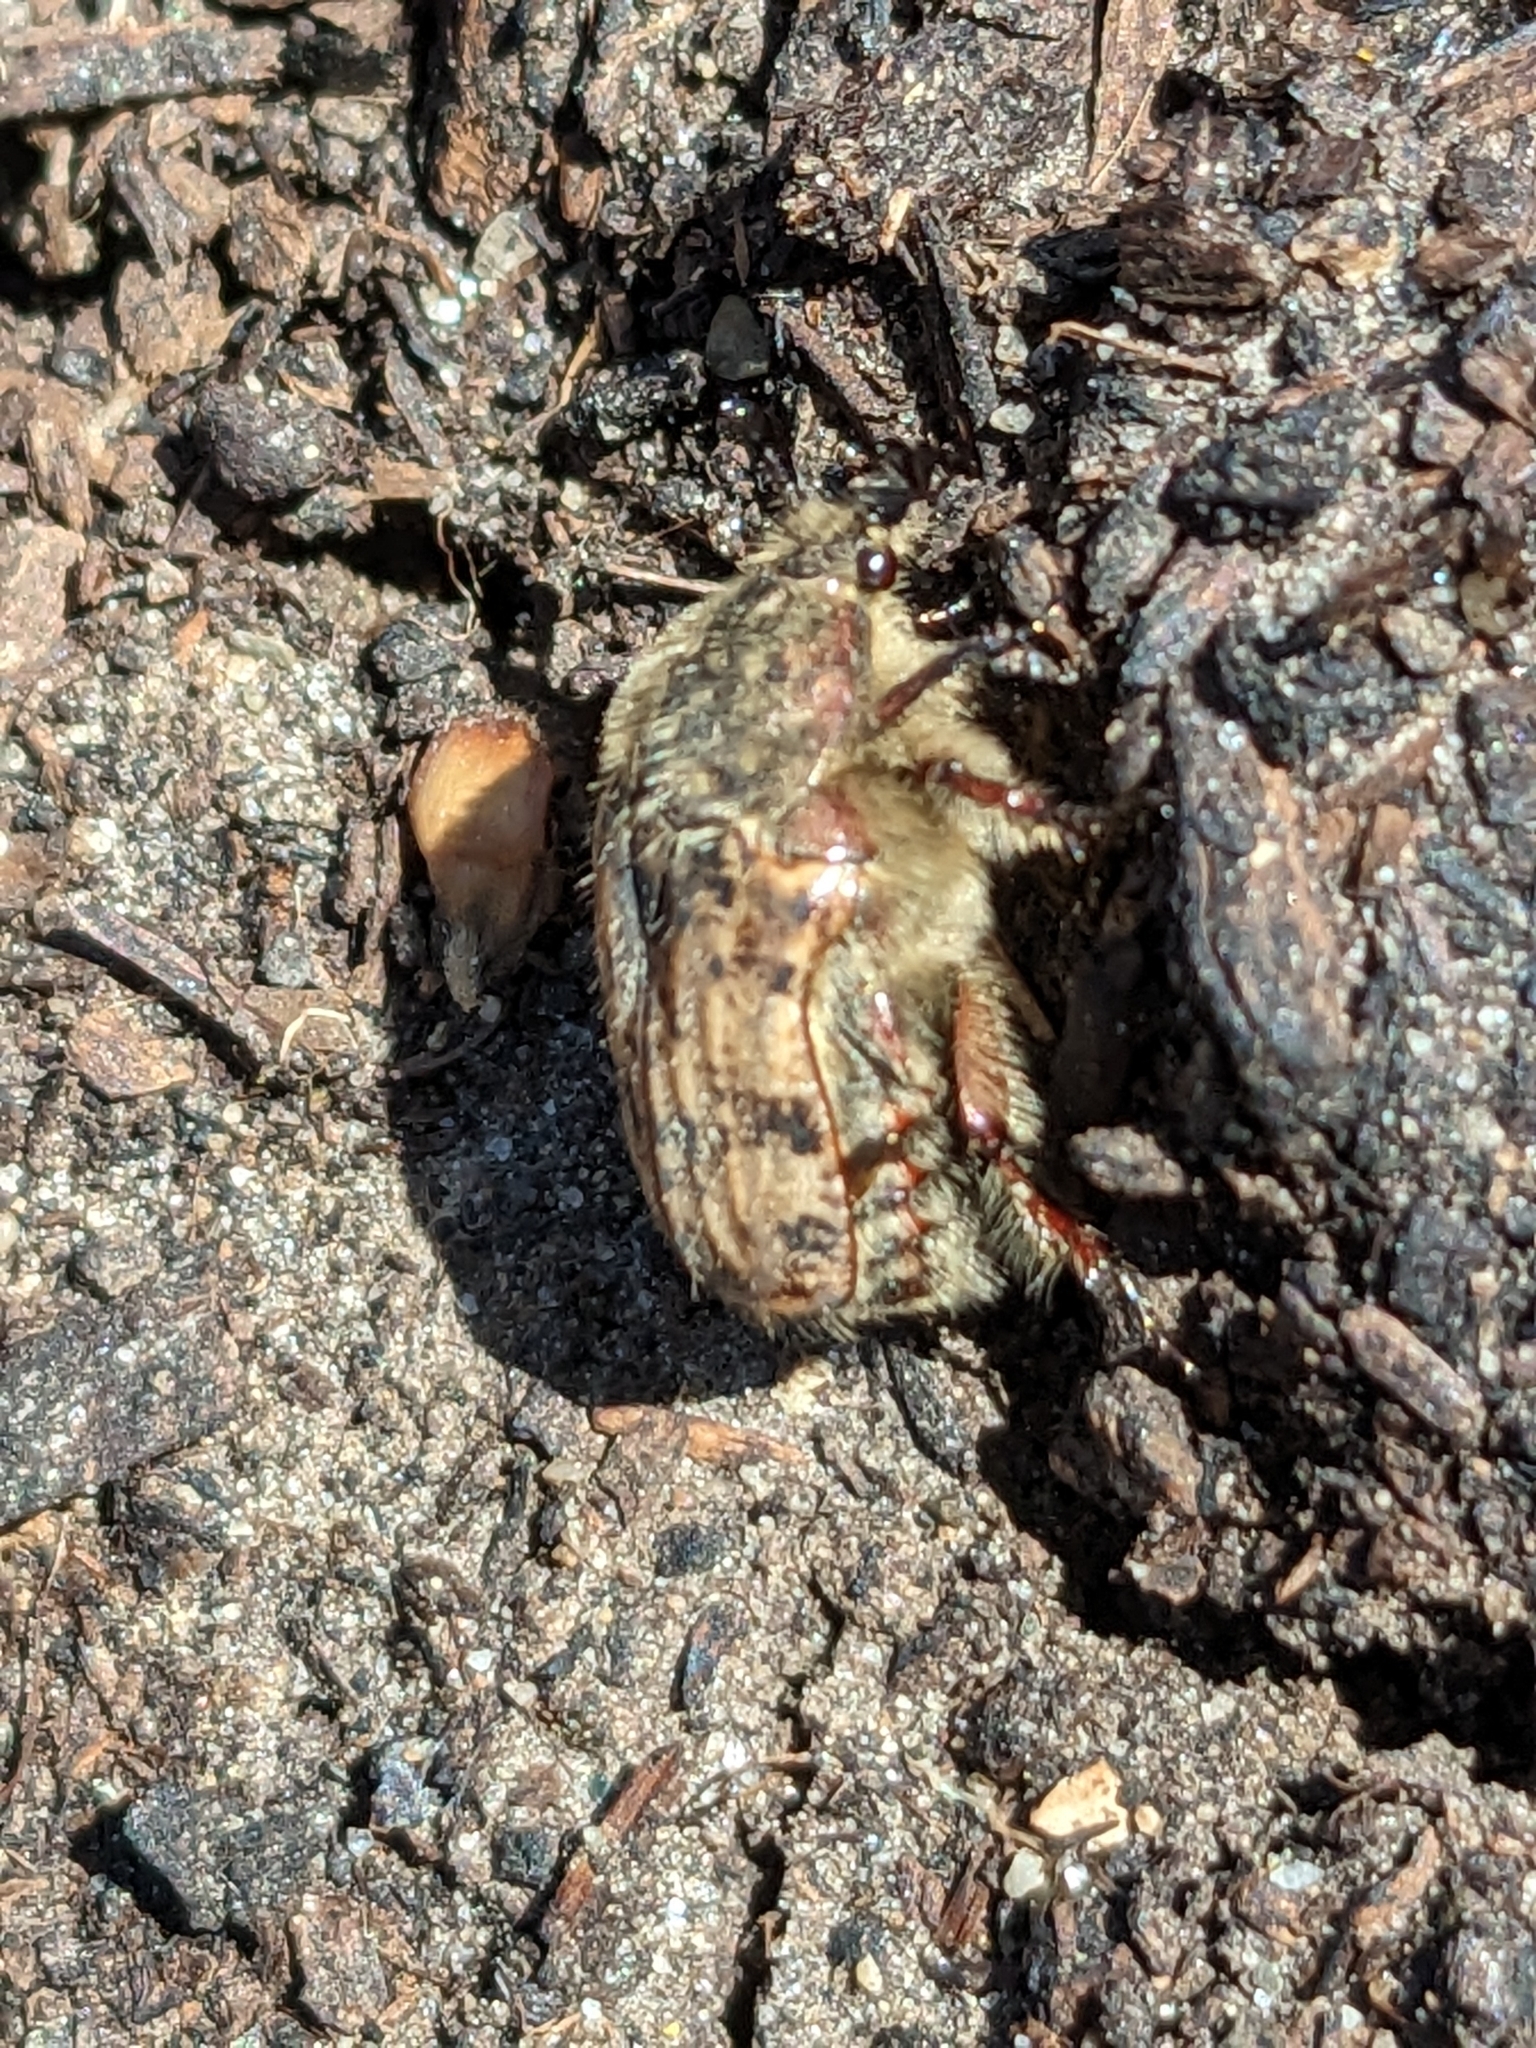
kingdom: Animalia
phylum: Arthropoda
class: Insecta
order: Coleoptera
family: Scarabaeidae
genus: Euphoria
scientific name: Euphoria inda
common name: Bumble flower beetle
